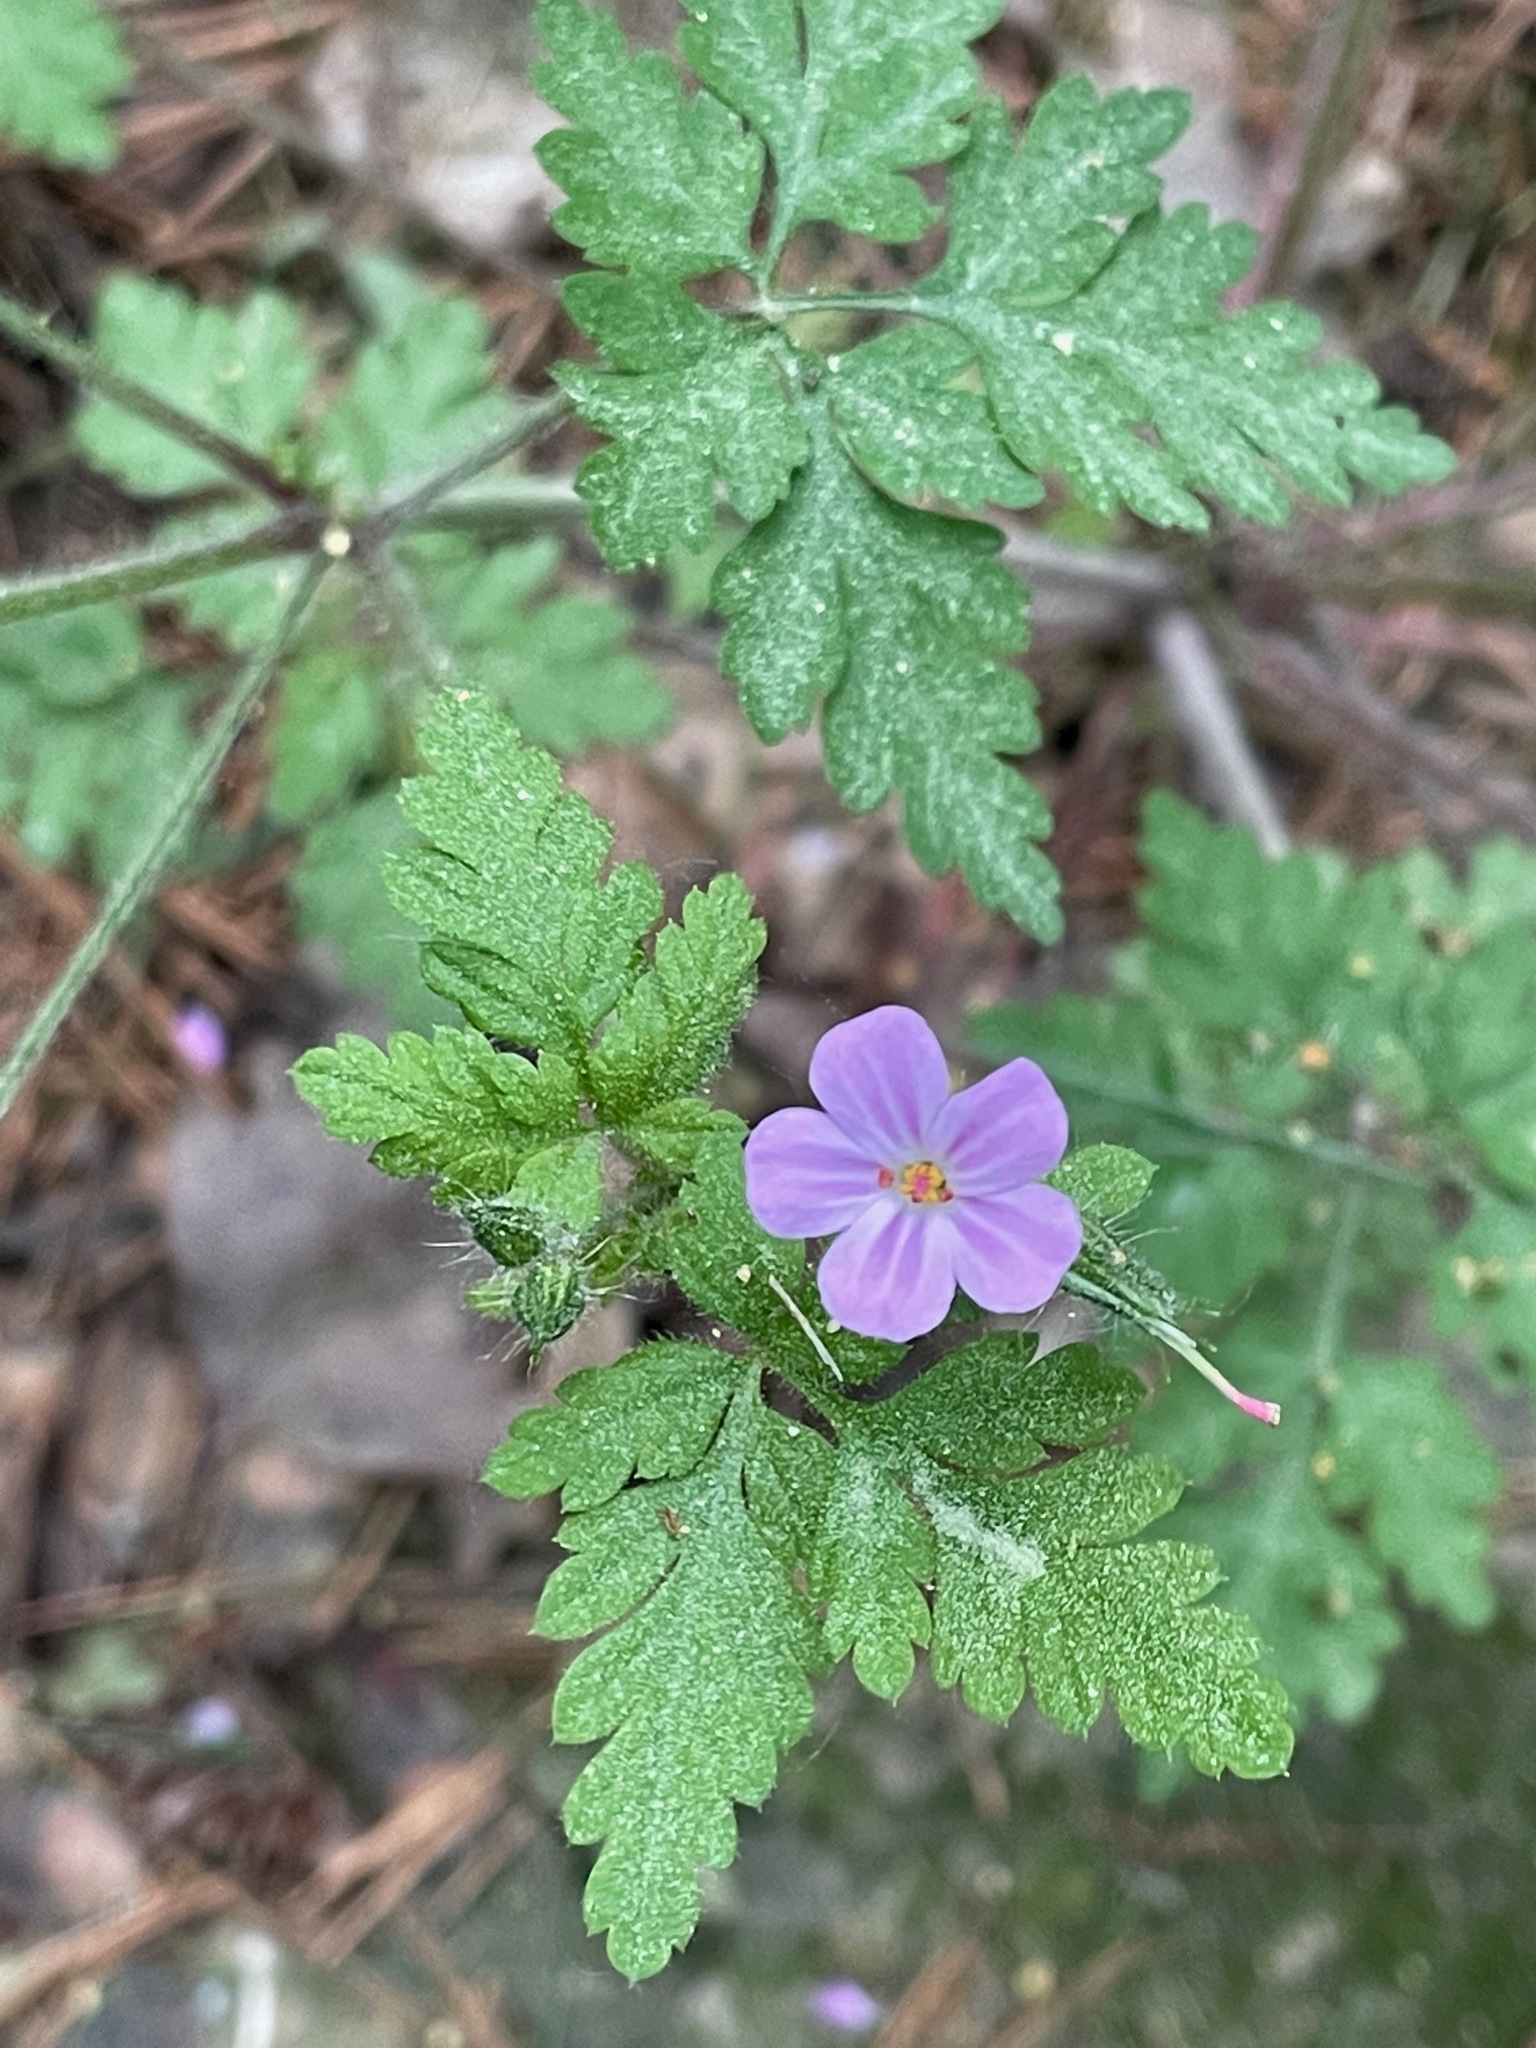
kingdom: Plantae
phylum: Tracheophyta
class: Magnoliopsida
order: Geraniales
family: Geraniaceae
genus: Geranium
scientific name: Geranium robertianum
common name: Herb-robert
